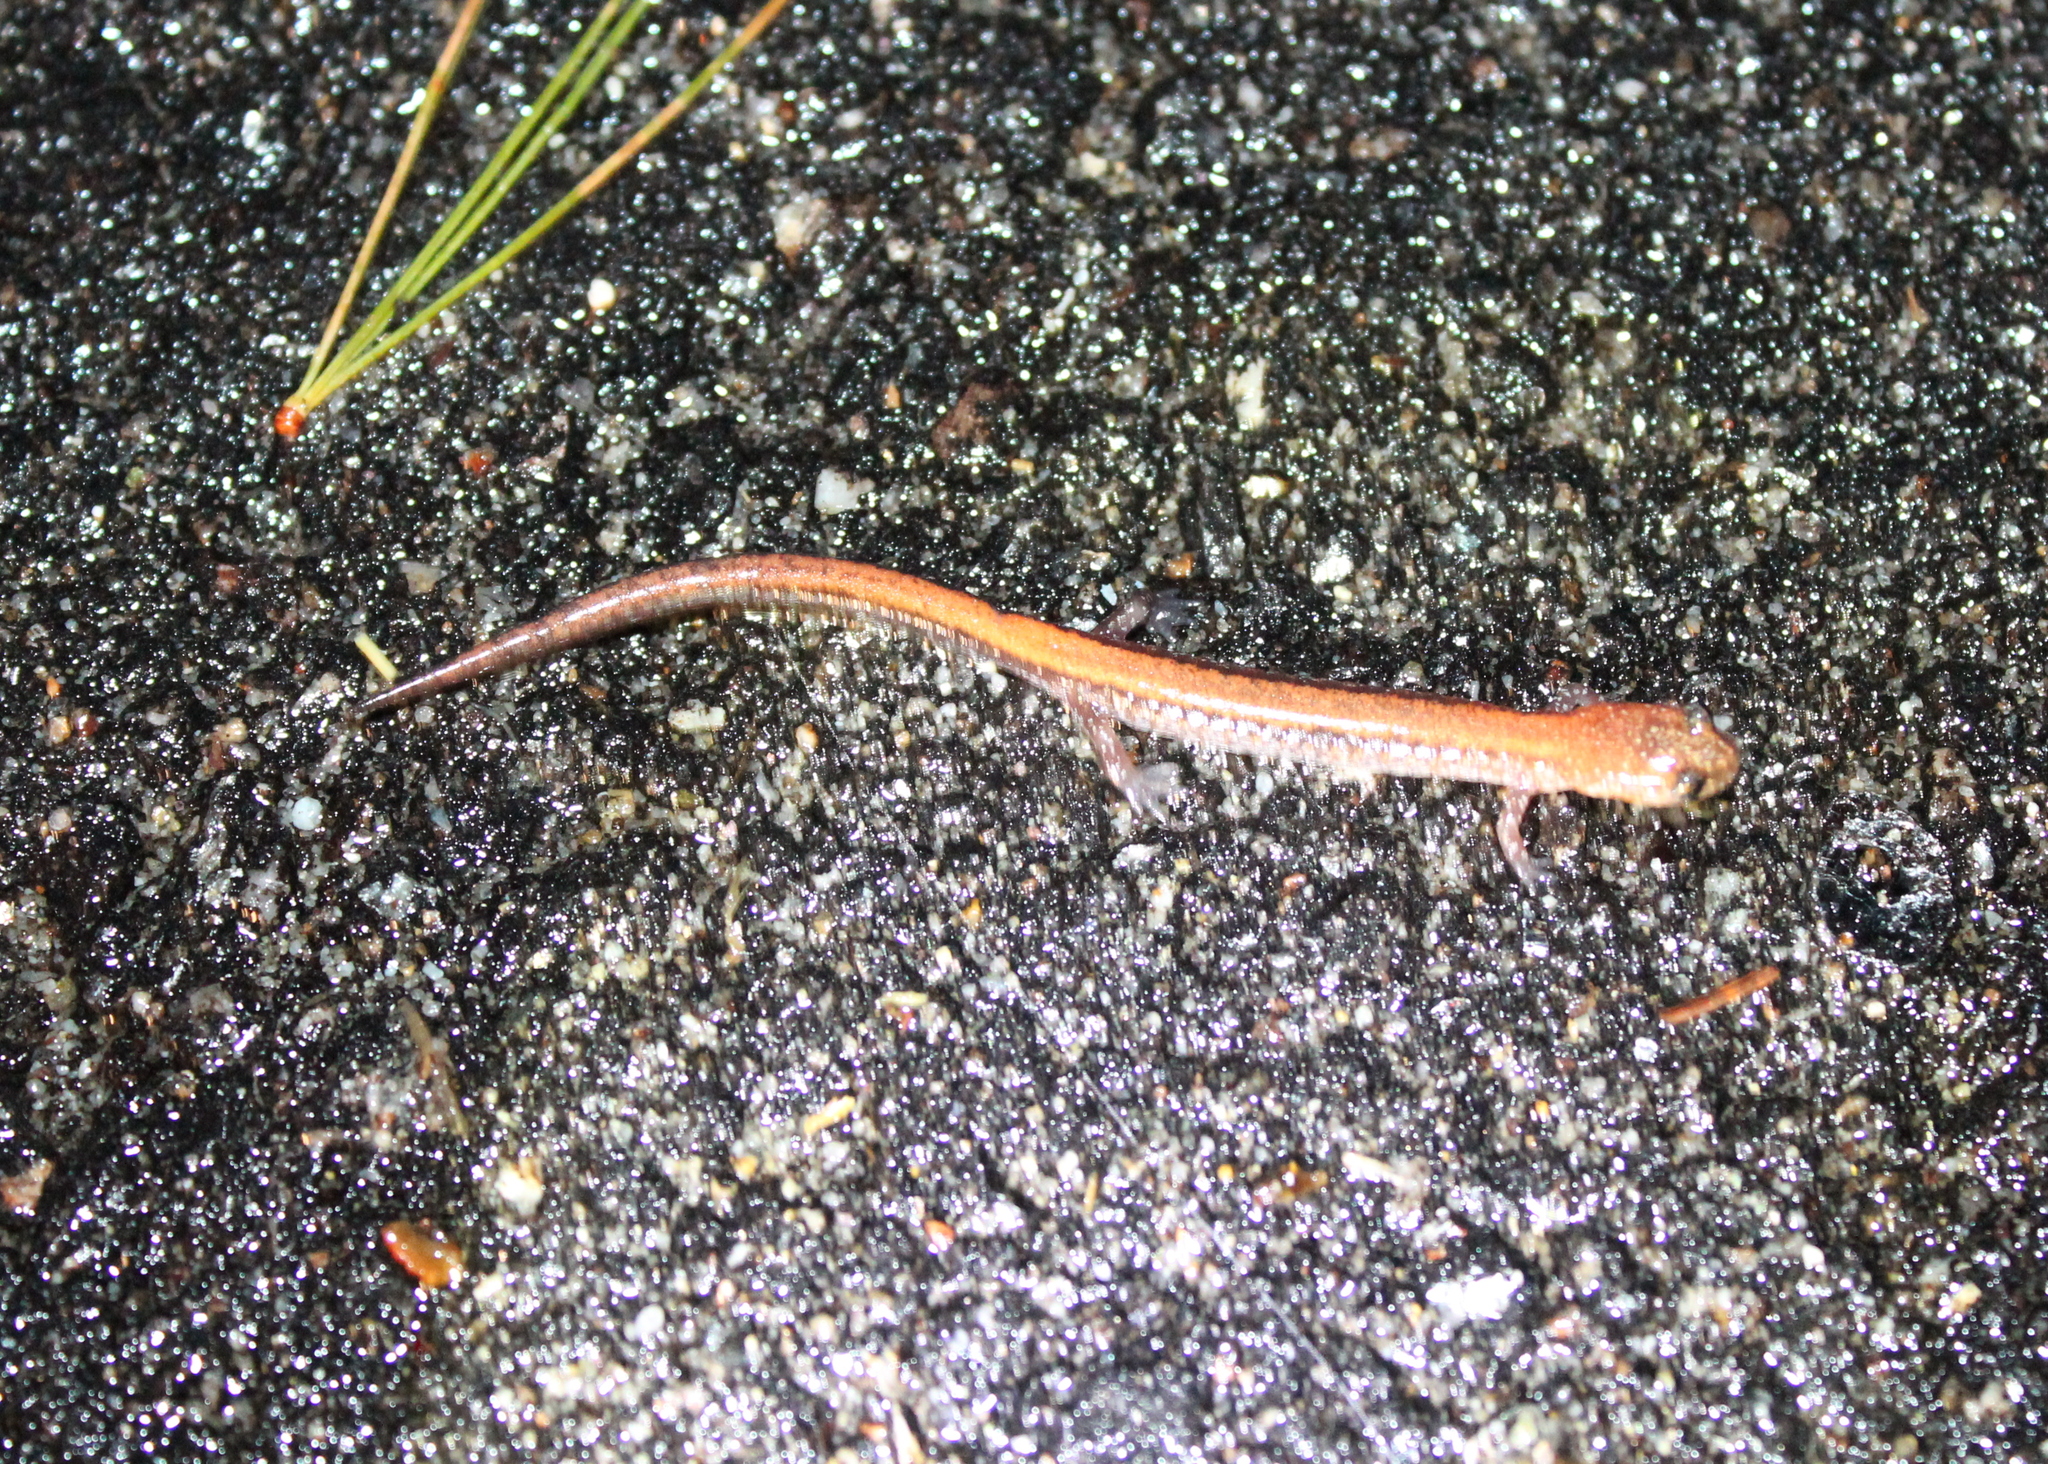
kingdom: Animalia
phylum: Chordata
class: Amphibia
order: Caudata
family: Plethodontidae
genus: Plethodon
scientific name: Plethodon cinereus
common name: Redback salamander
